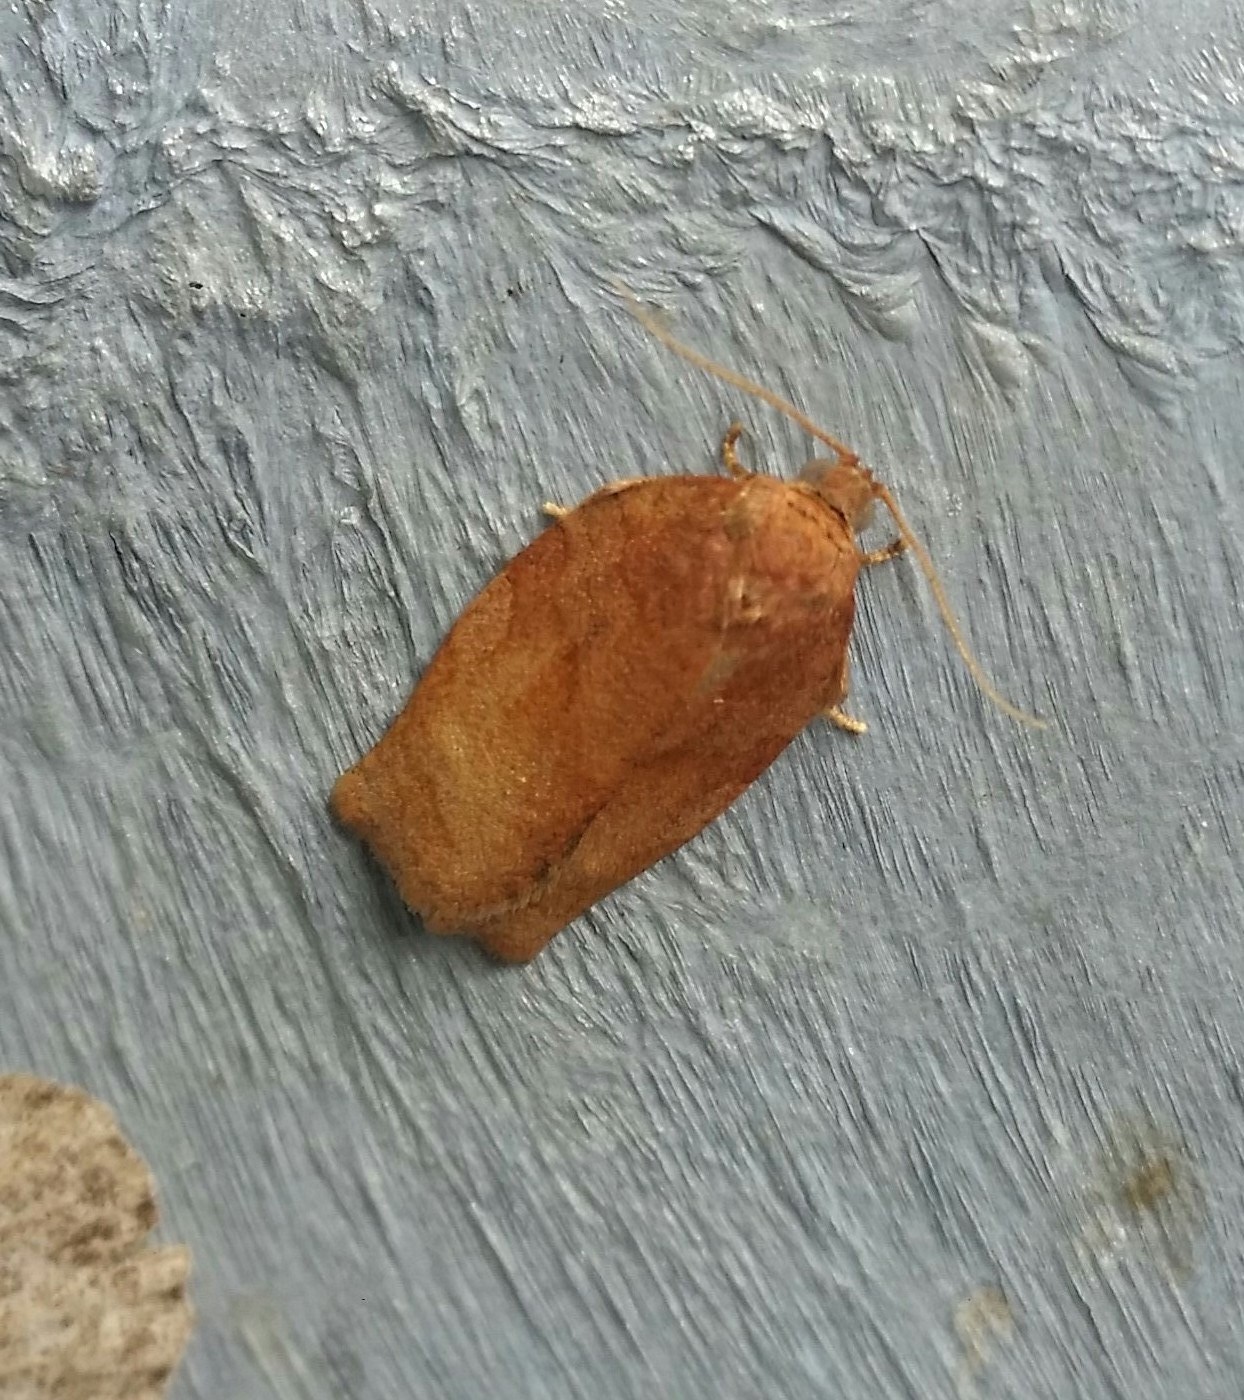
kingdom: Animalia
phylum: Arthropoda
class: Insecta
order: Lepidoptera
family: Tortricidae
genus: Choristoneura
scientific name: Choristoneura rosaceana
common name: Oblique-banded leafroller moth
